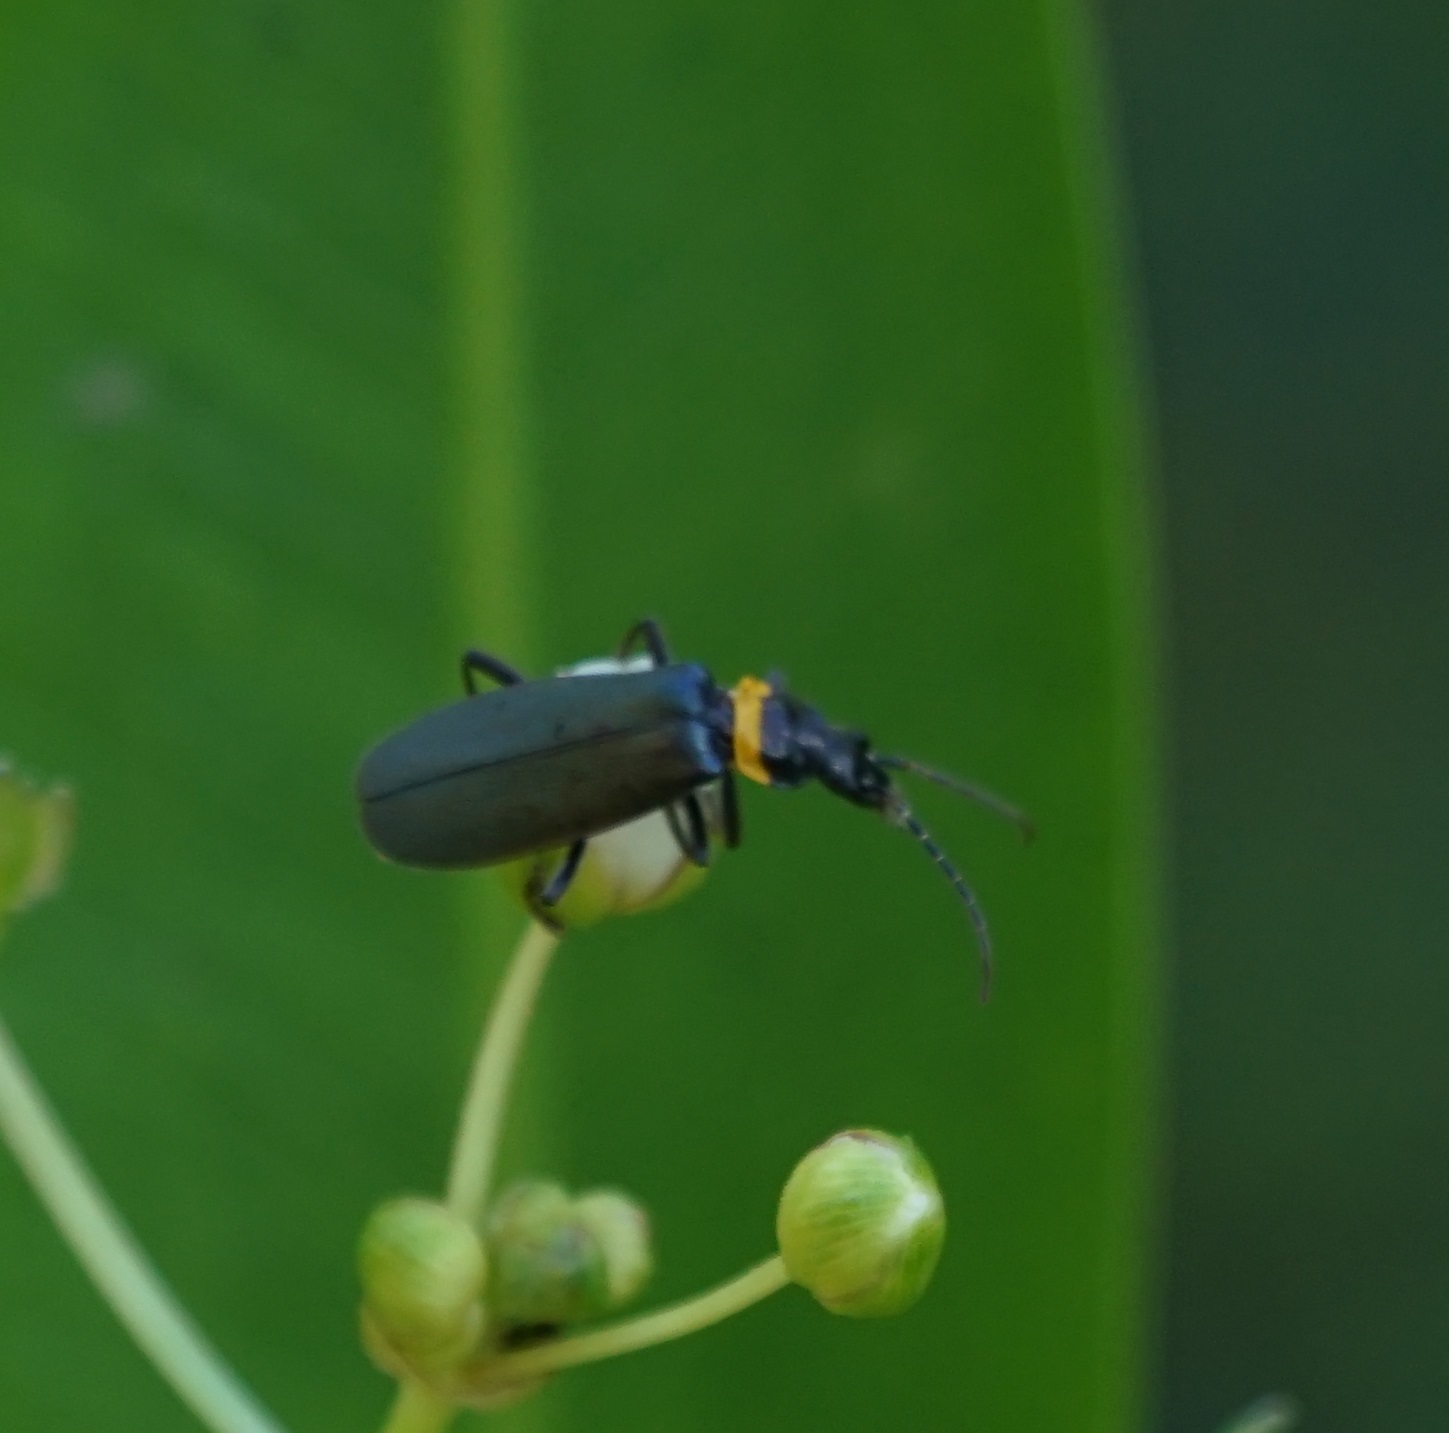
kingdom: Animalia
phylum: Arthropoda
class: Insecta
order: Coleoptera
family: Cantharidae
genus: Chauliognathus
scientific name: Chauliognathus
